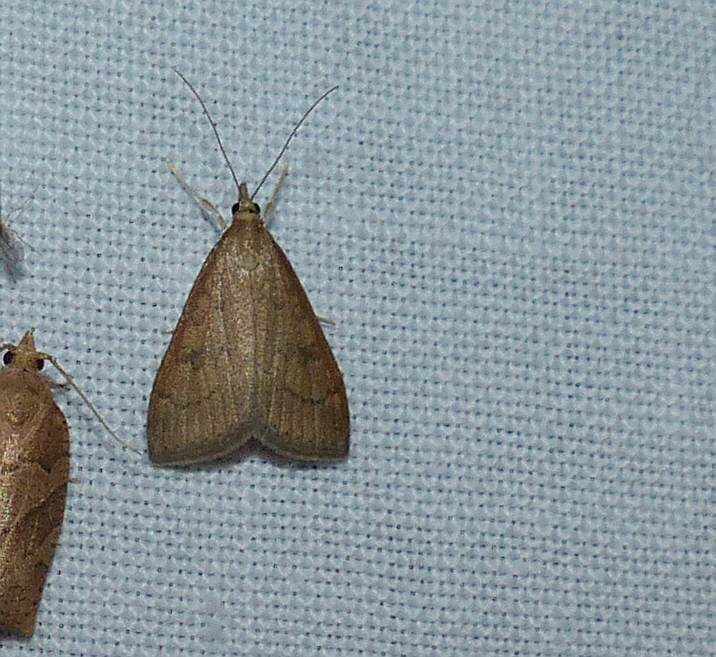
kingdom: Animalia
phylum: Arthropoda
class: Insecta
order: Lepidoptera
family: Crambidae
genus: Udea
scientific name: Udea rubigalis
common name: Celery leaftier moth
